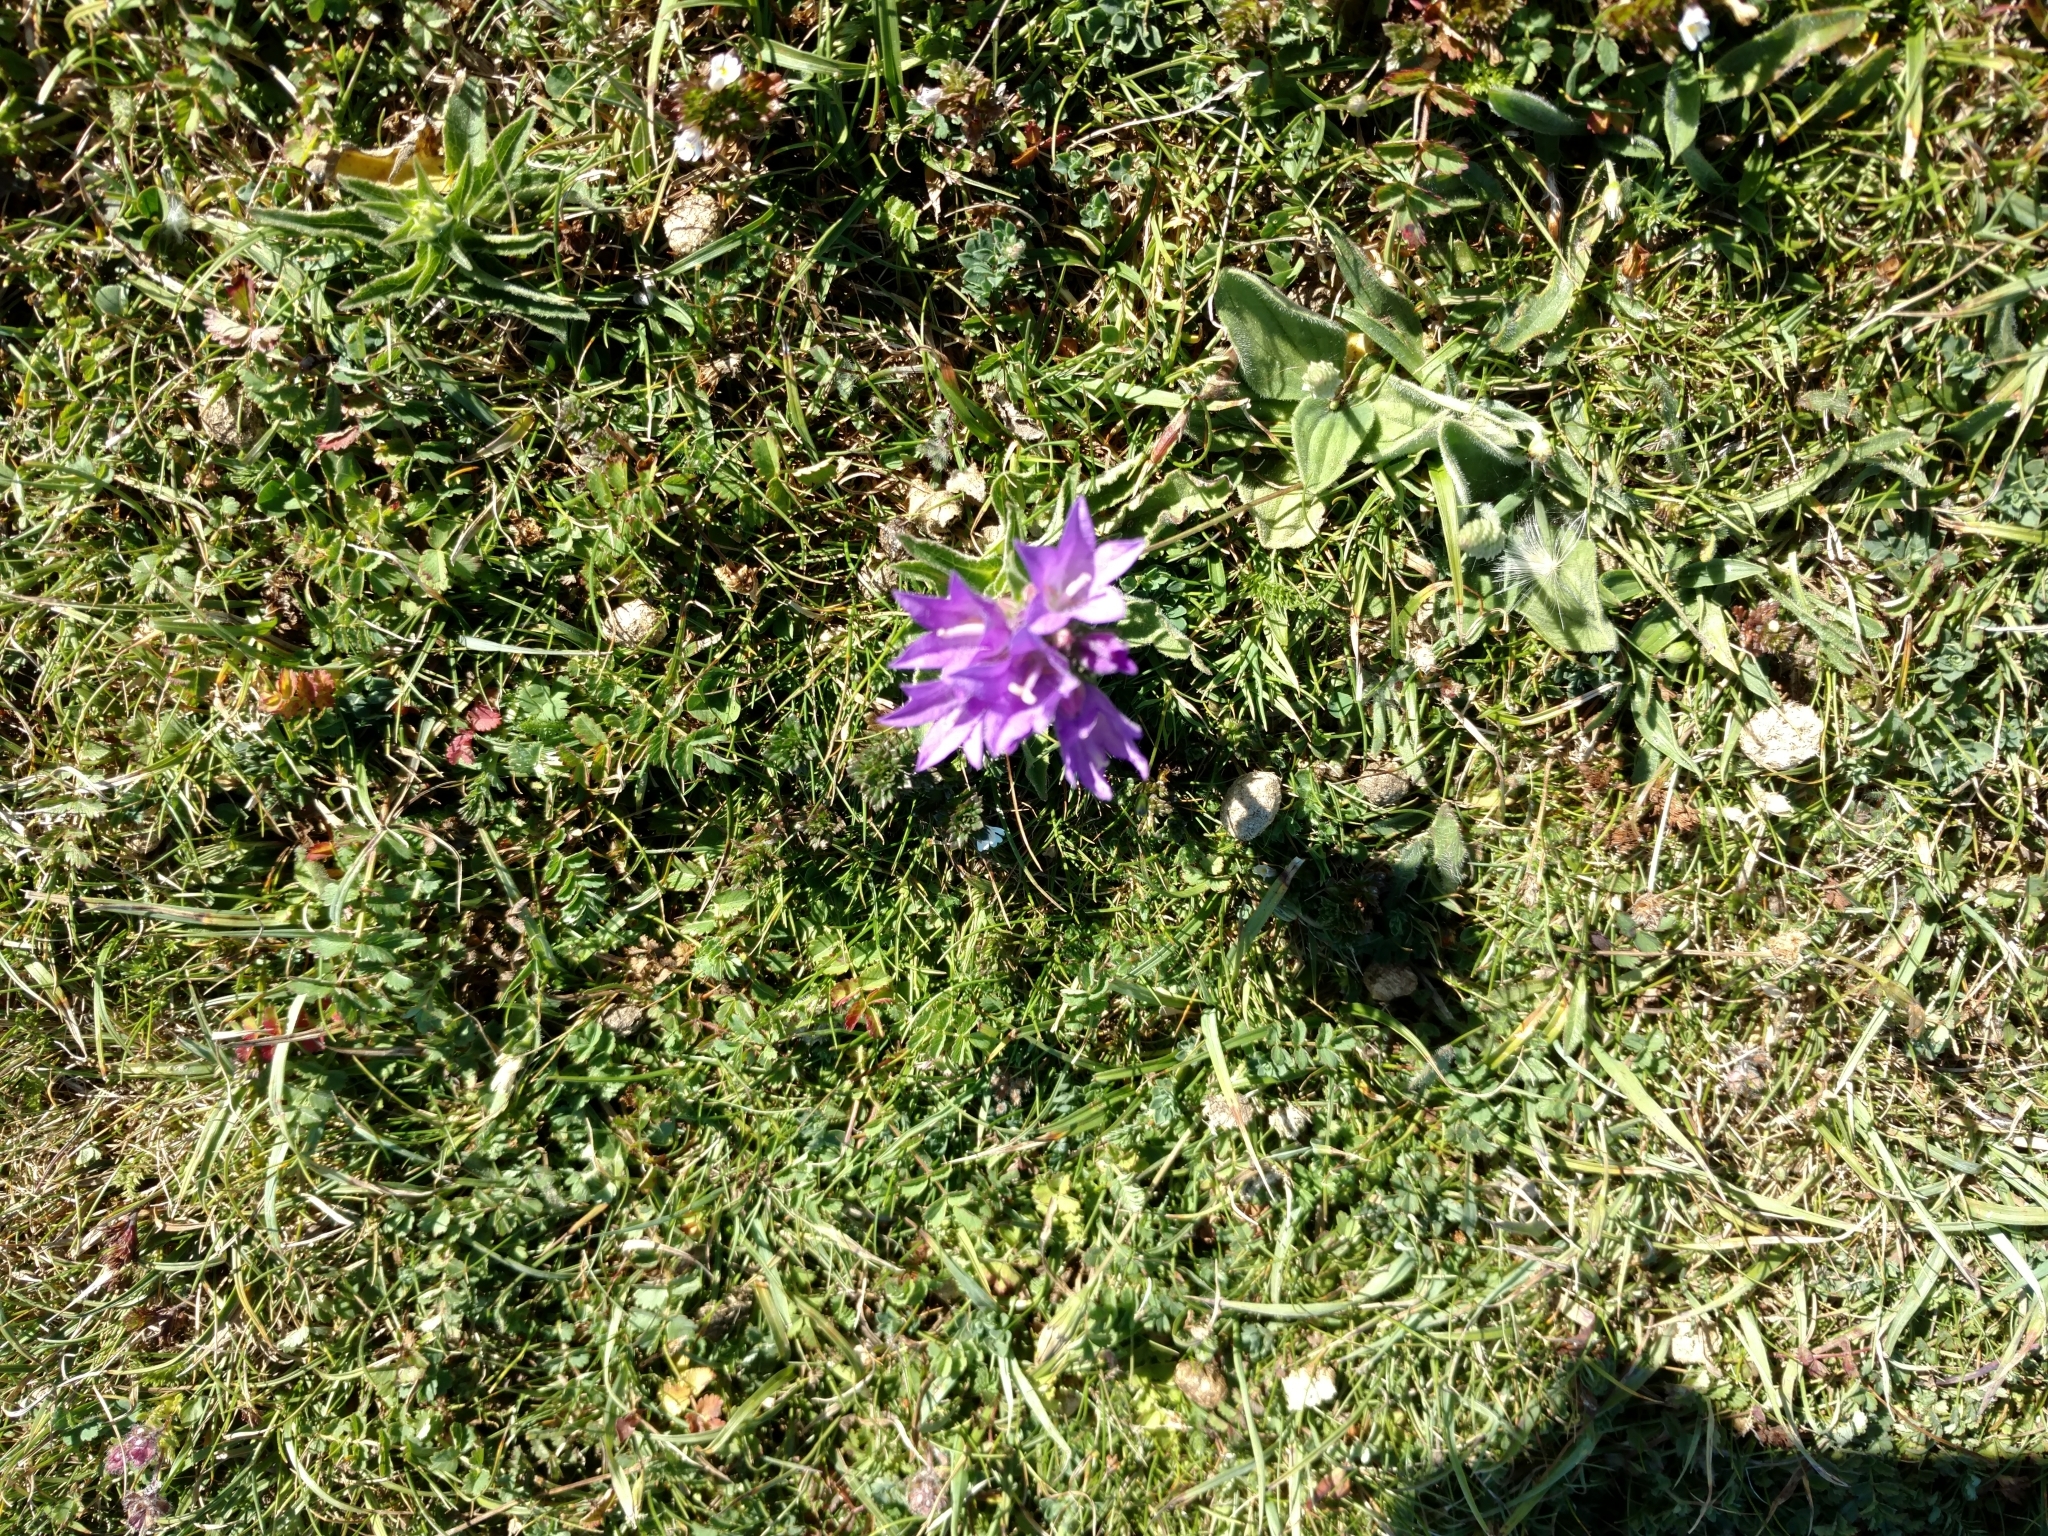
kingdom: Plantae
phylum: Tracheophyta
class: Magnoliopsida
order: Asterales
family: Campanulaceae
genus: Campanula
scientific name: Campanula glomerata
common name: Clustered bellflower
